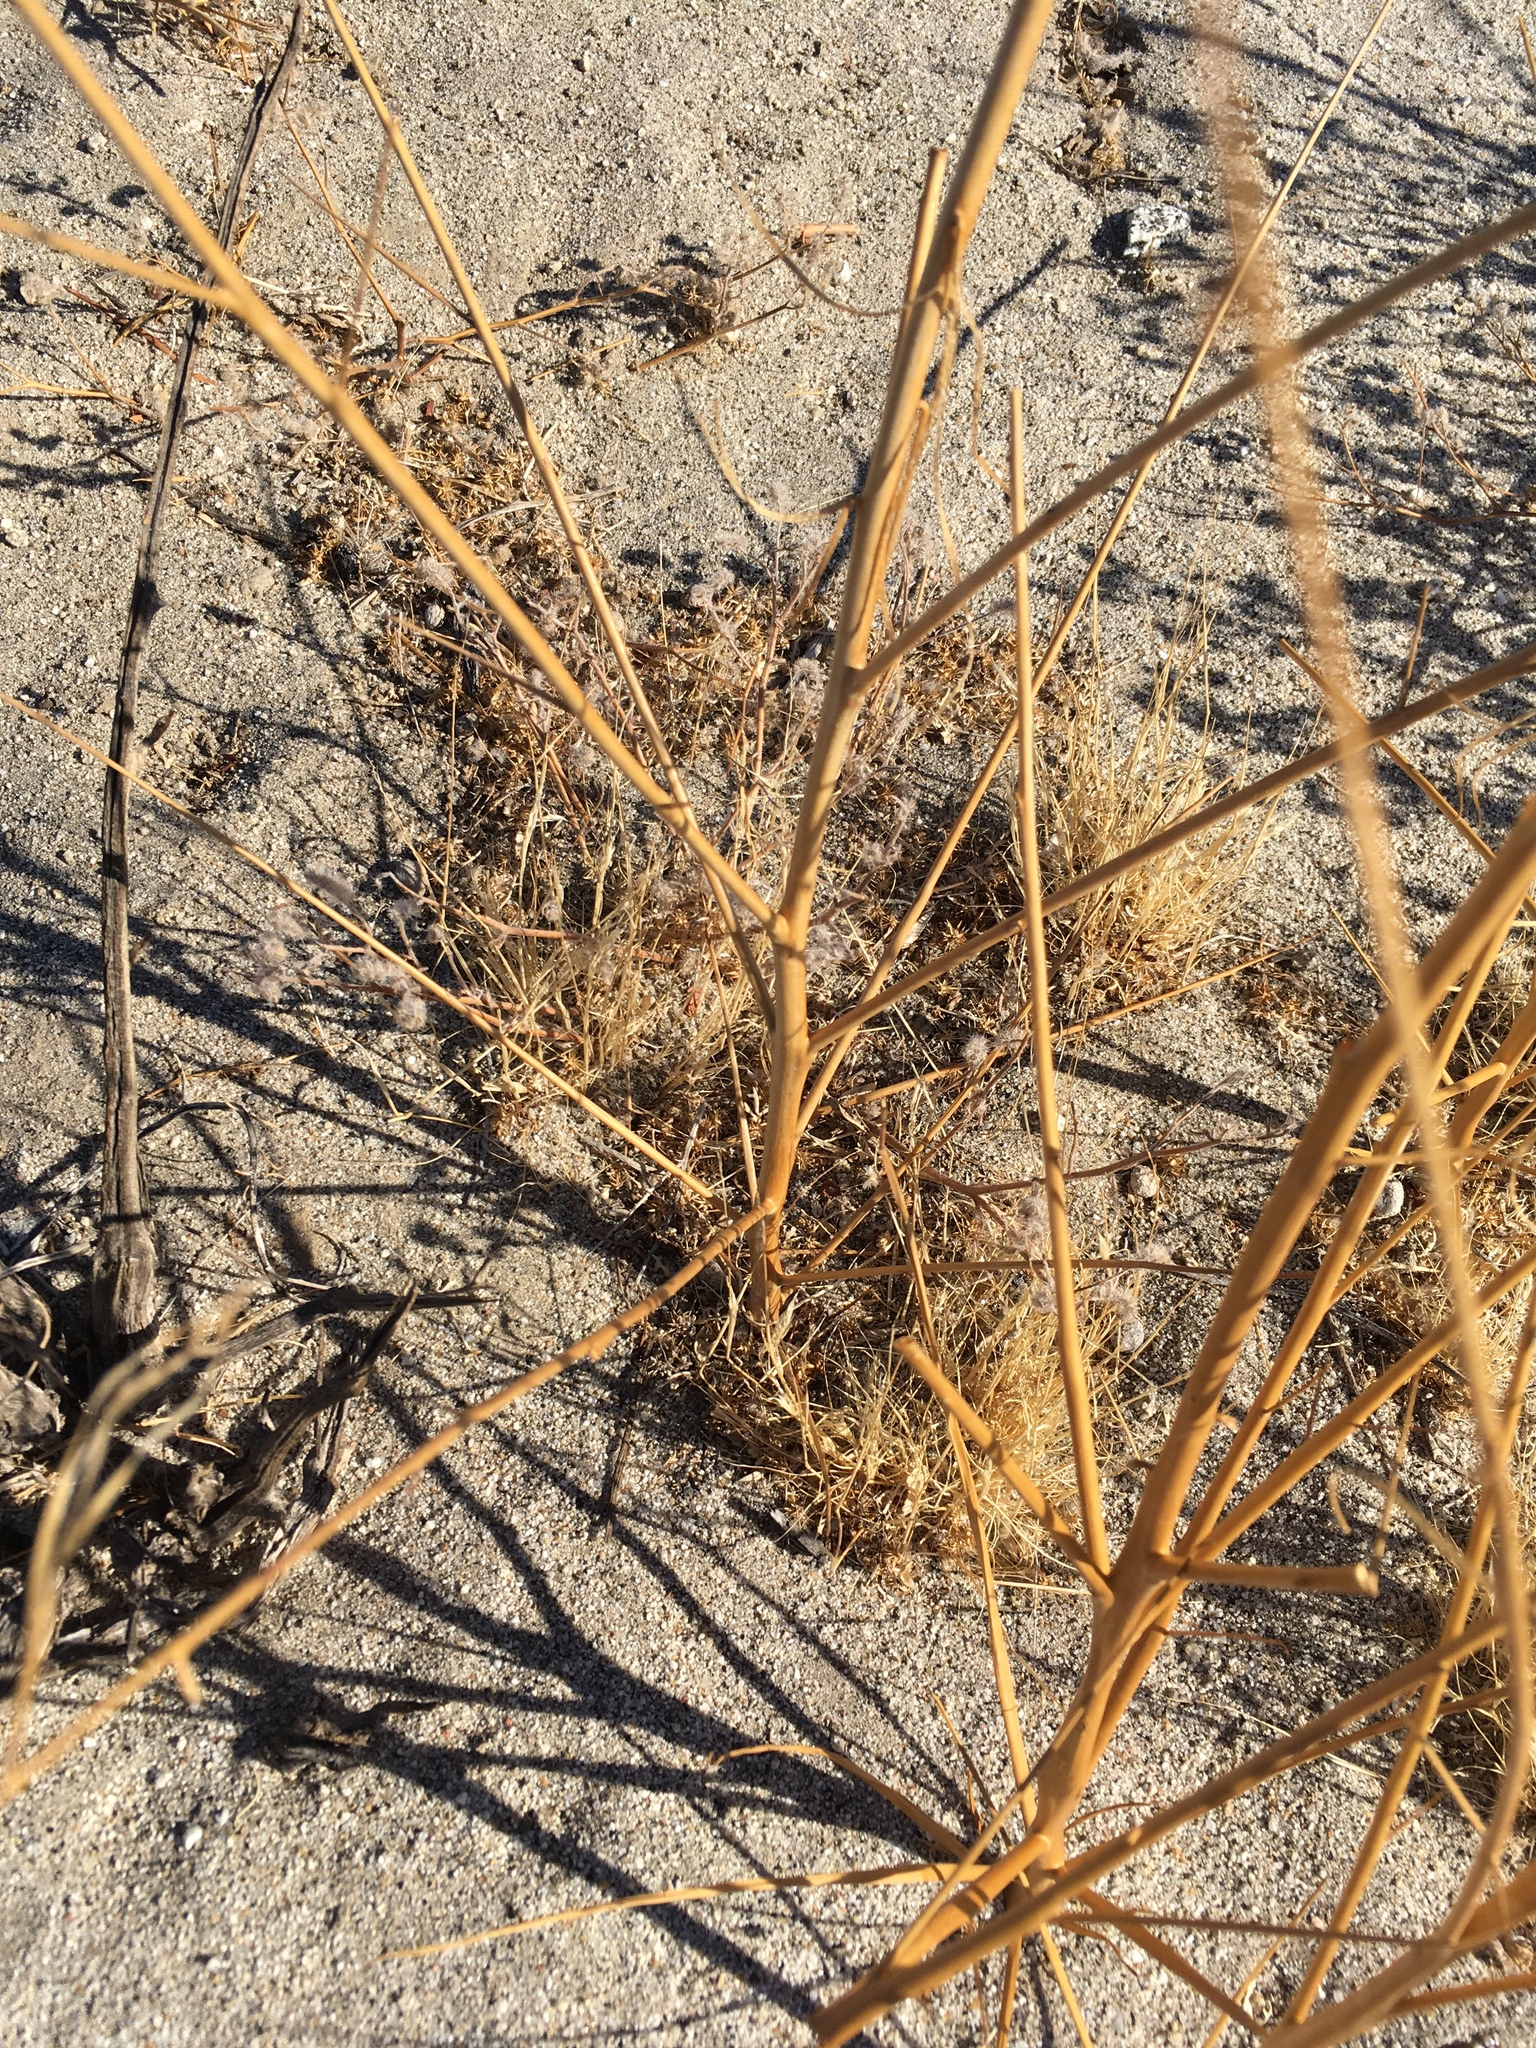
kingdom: Plantae
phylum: Tracheophyta
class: Magnoliopsida
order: Myrtales
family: Onagraceae
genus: Eulobus
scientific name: Eulobus californicus
